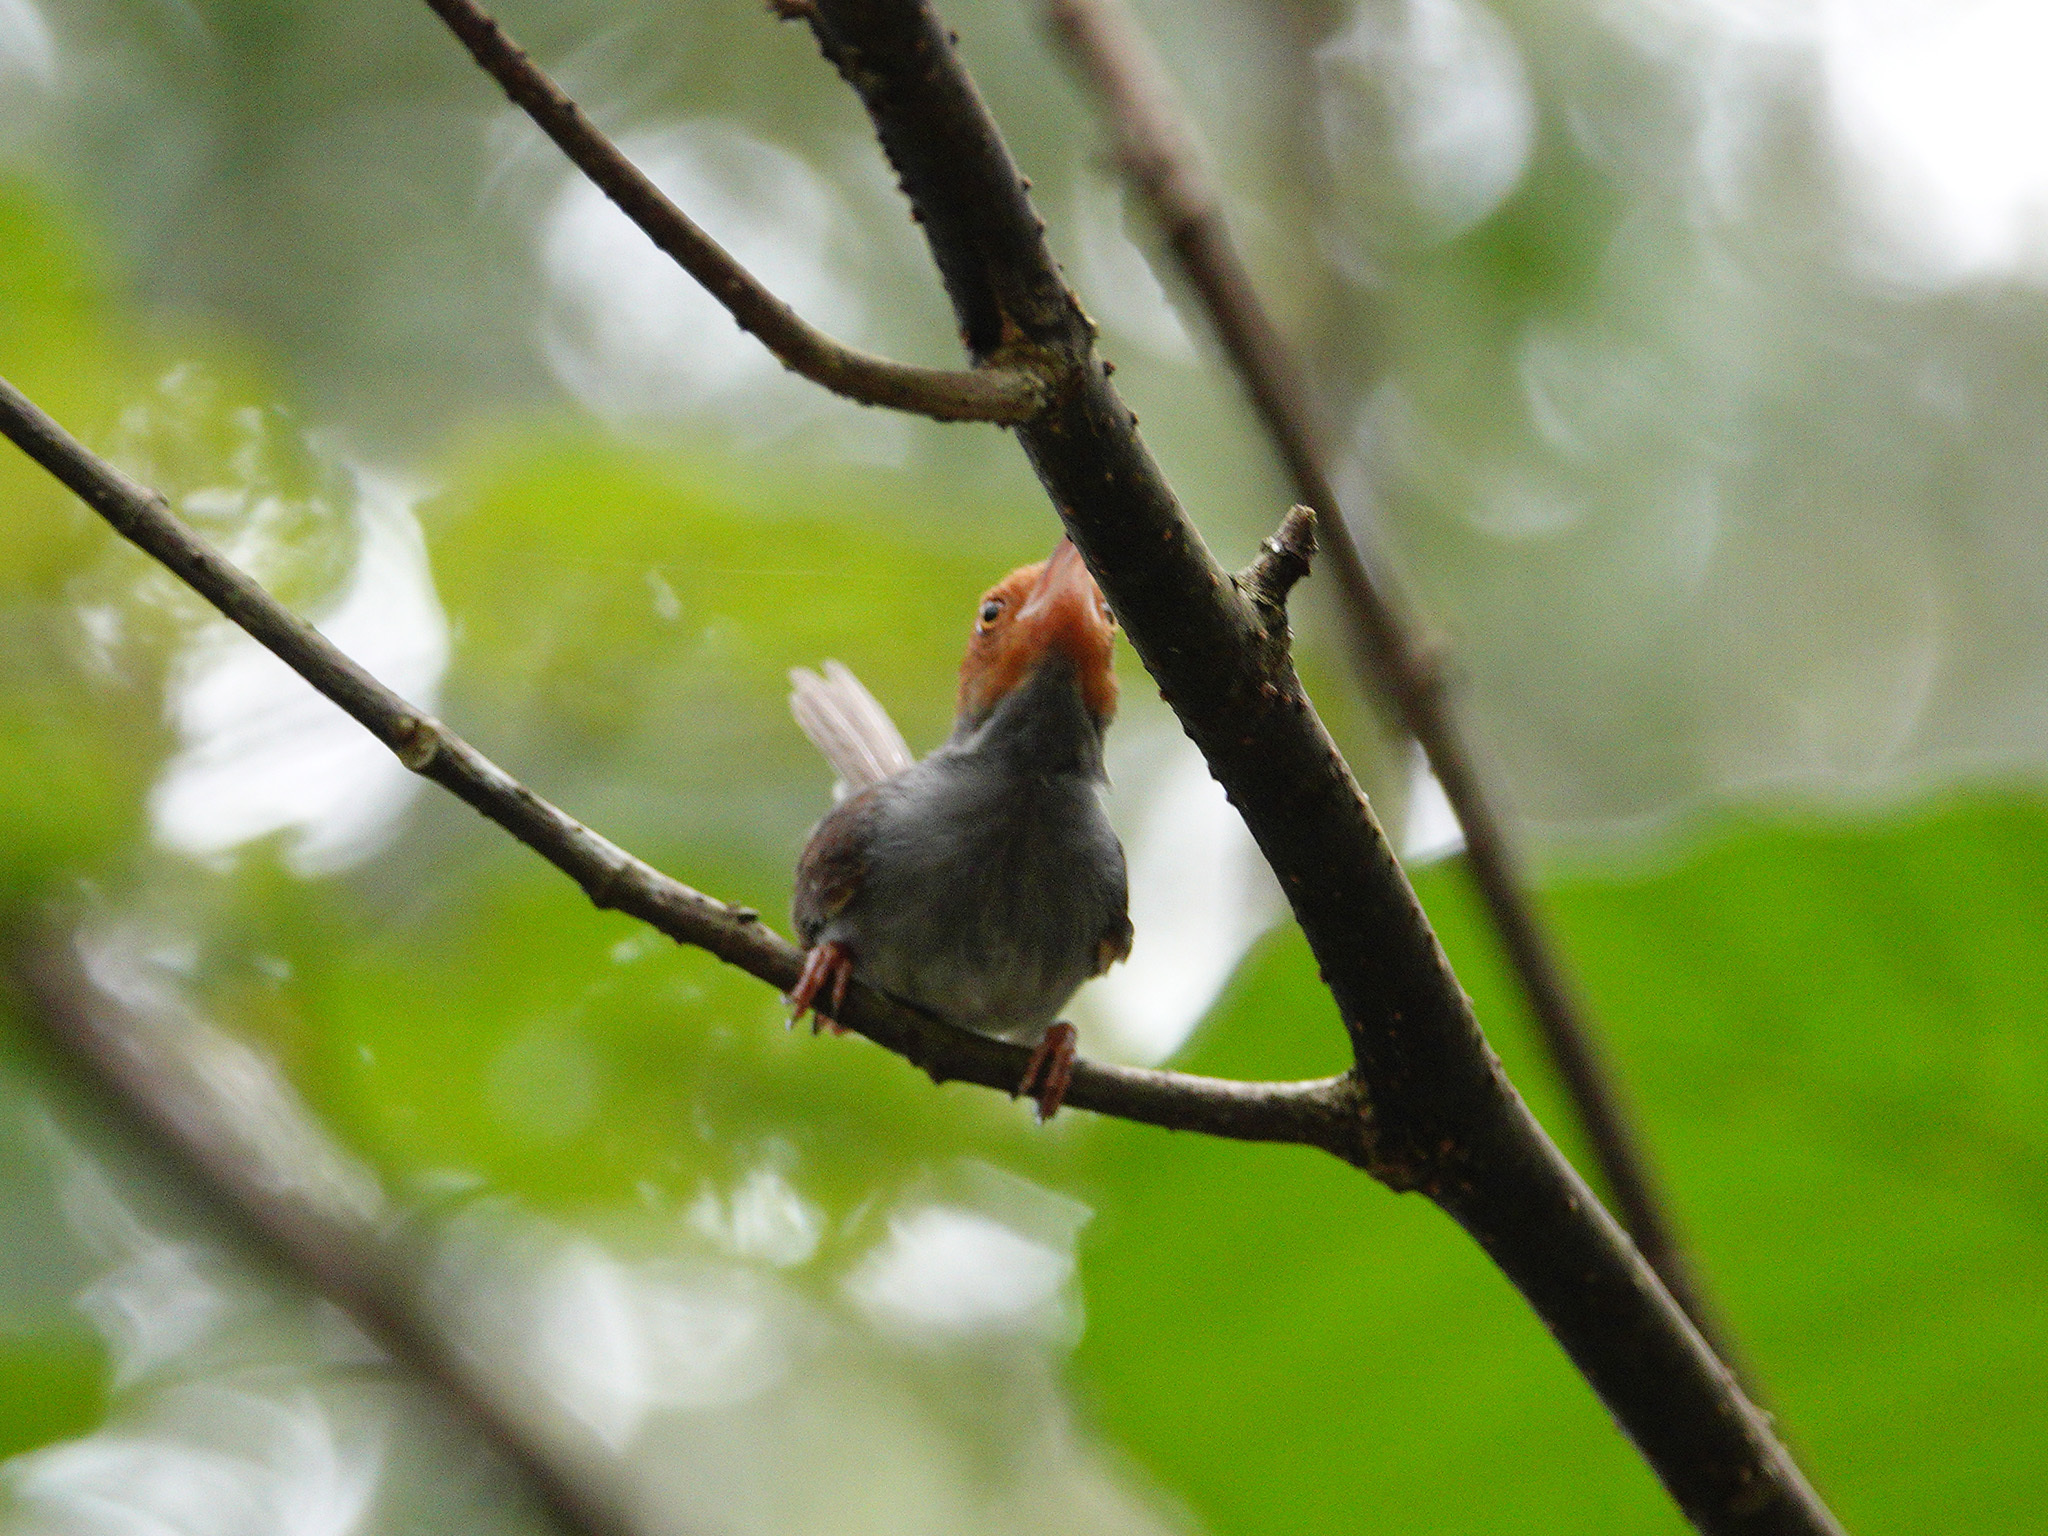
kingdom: Animalia
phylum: Chordata
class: Aves
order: Passeriformes
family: Cisticolidae
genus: Orthotomus
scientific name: Orthotomus ruficeps
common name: Ashy tailorbird
